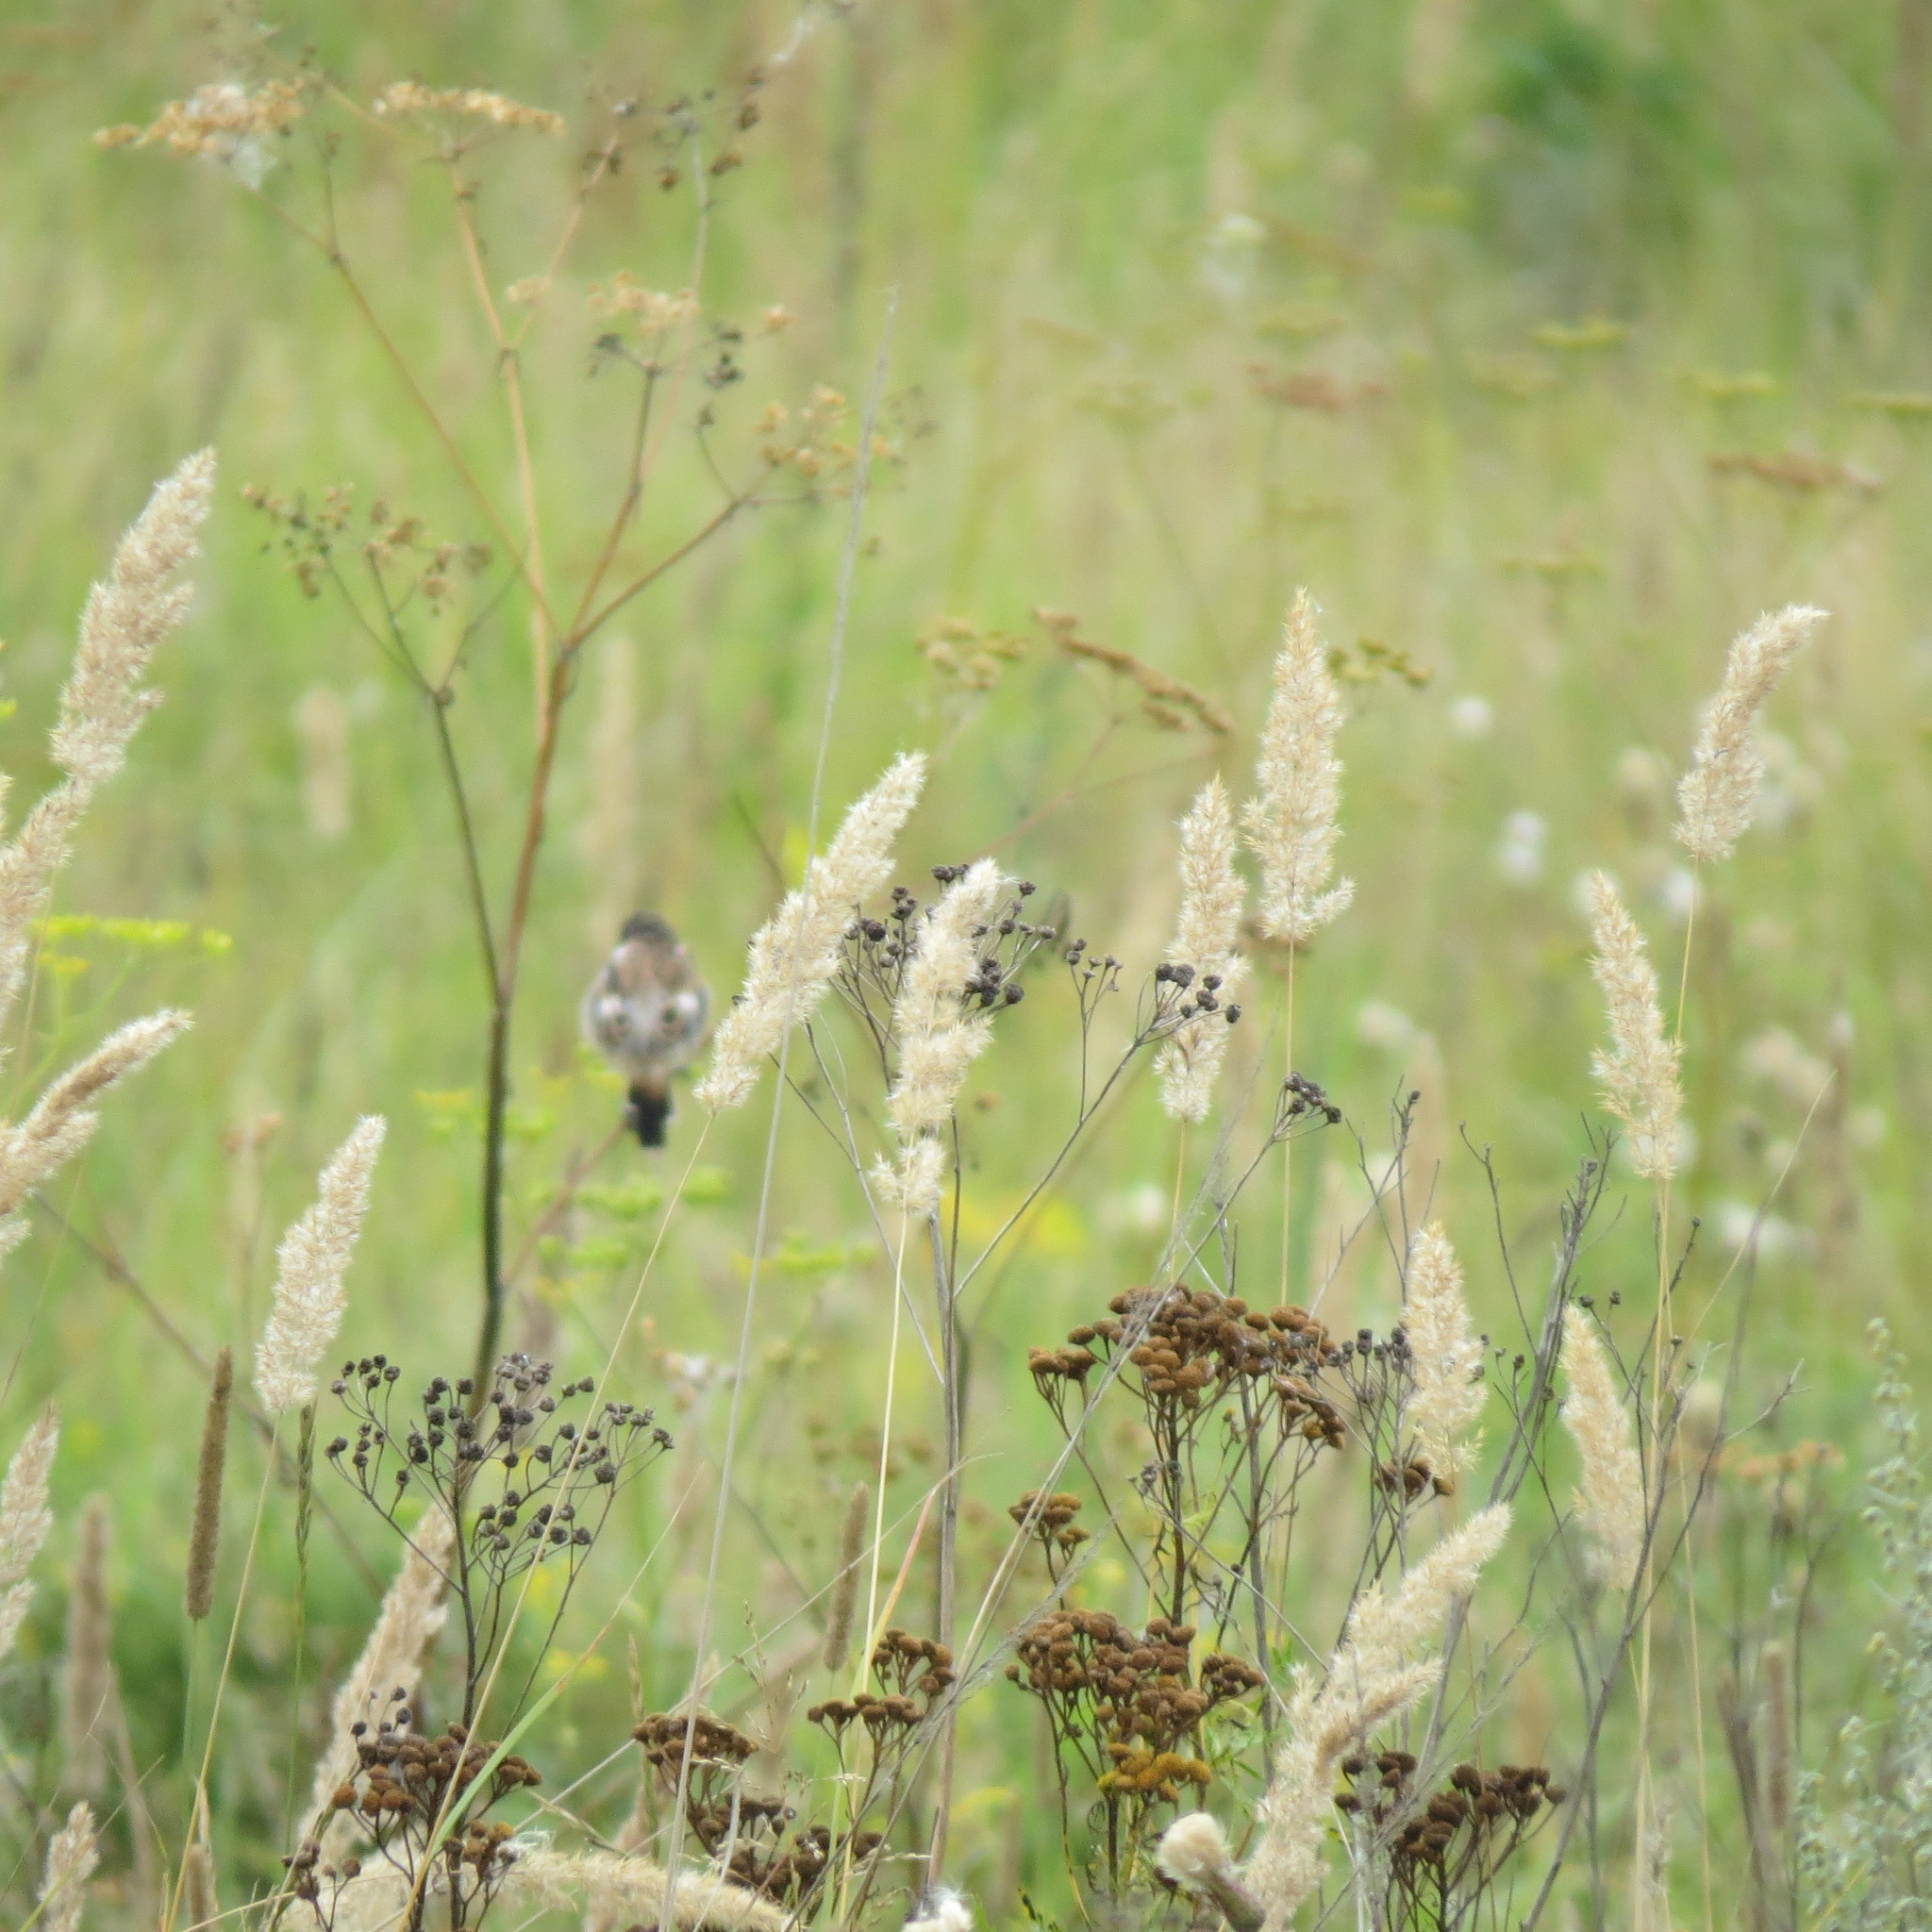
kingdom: Animalia
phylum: Chordata
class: Aves
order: Passeriformes
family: Muscicapidae
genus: Saxicola
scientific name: Saxicola maurus
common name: Siberian stonechat
